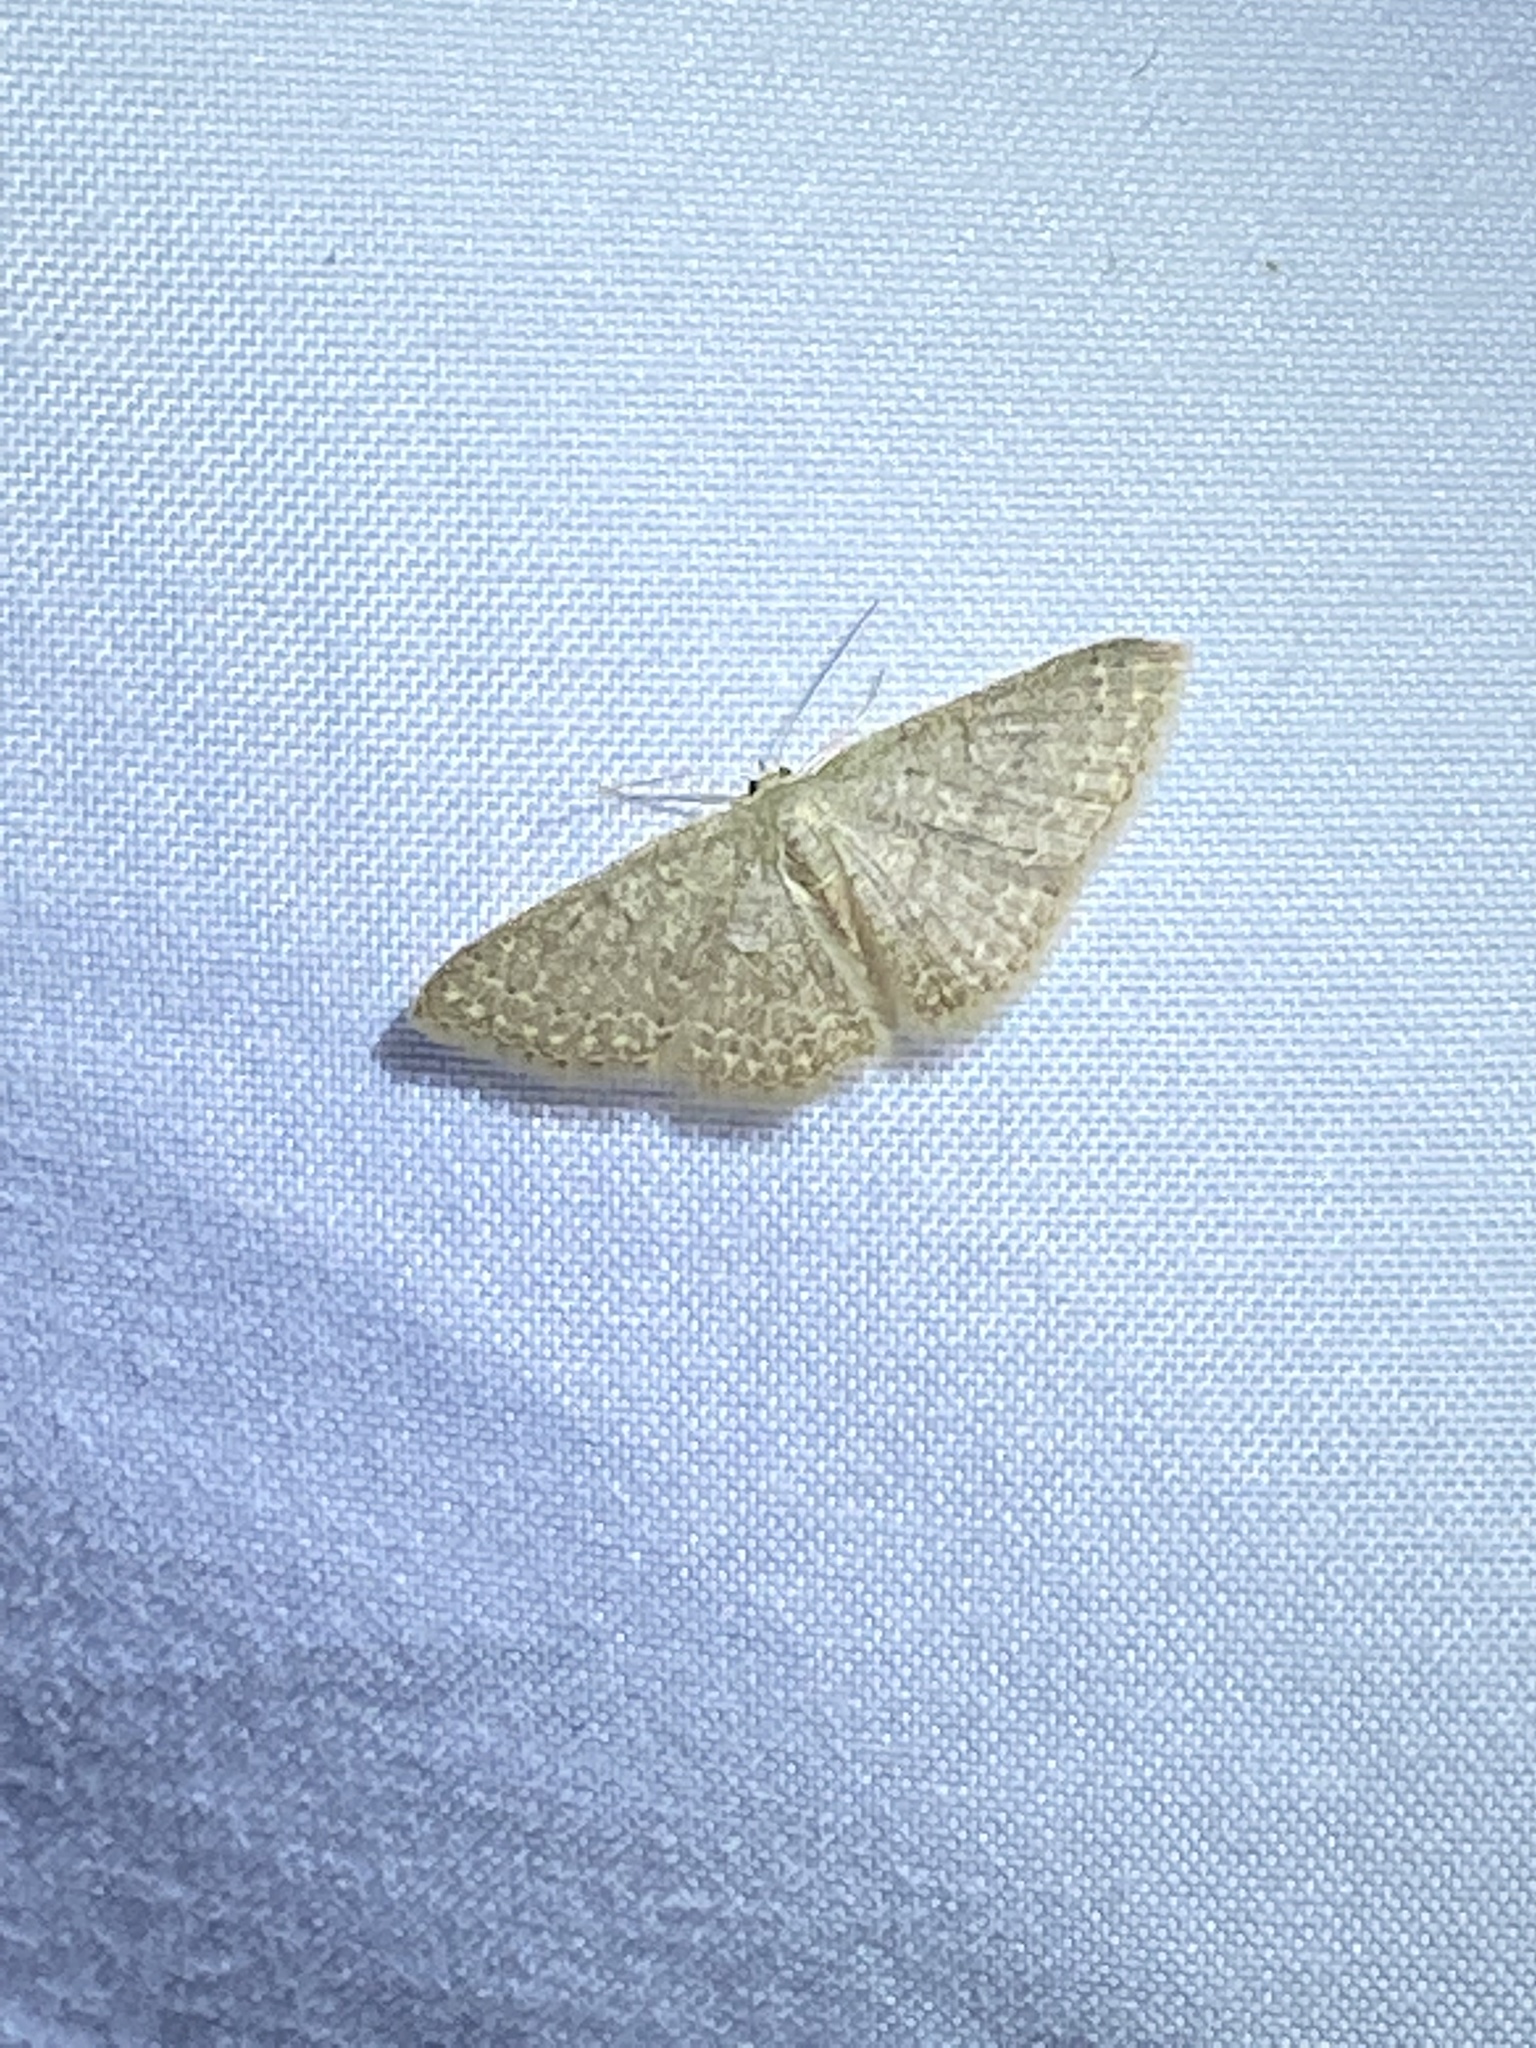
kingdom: Animalia
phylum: Arthropoda
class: Insecta
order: Lepidoptera
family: Geometridae
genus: Pleuroprucha
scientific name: Pleuroprucha insulsaria
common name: Common tan wave
